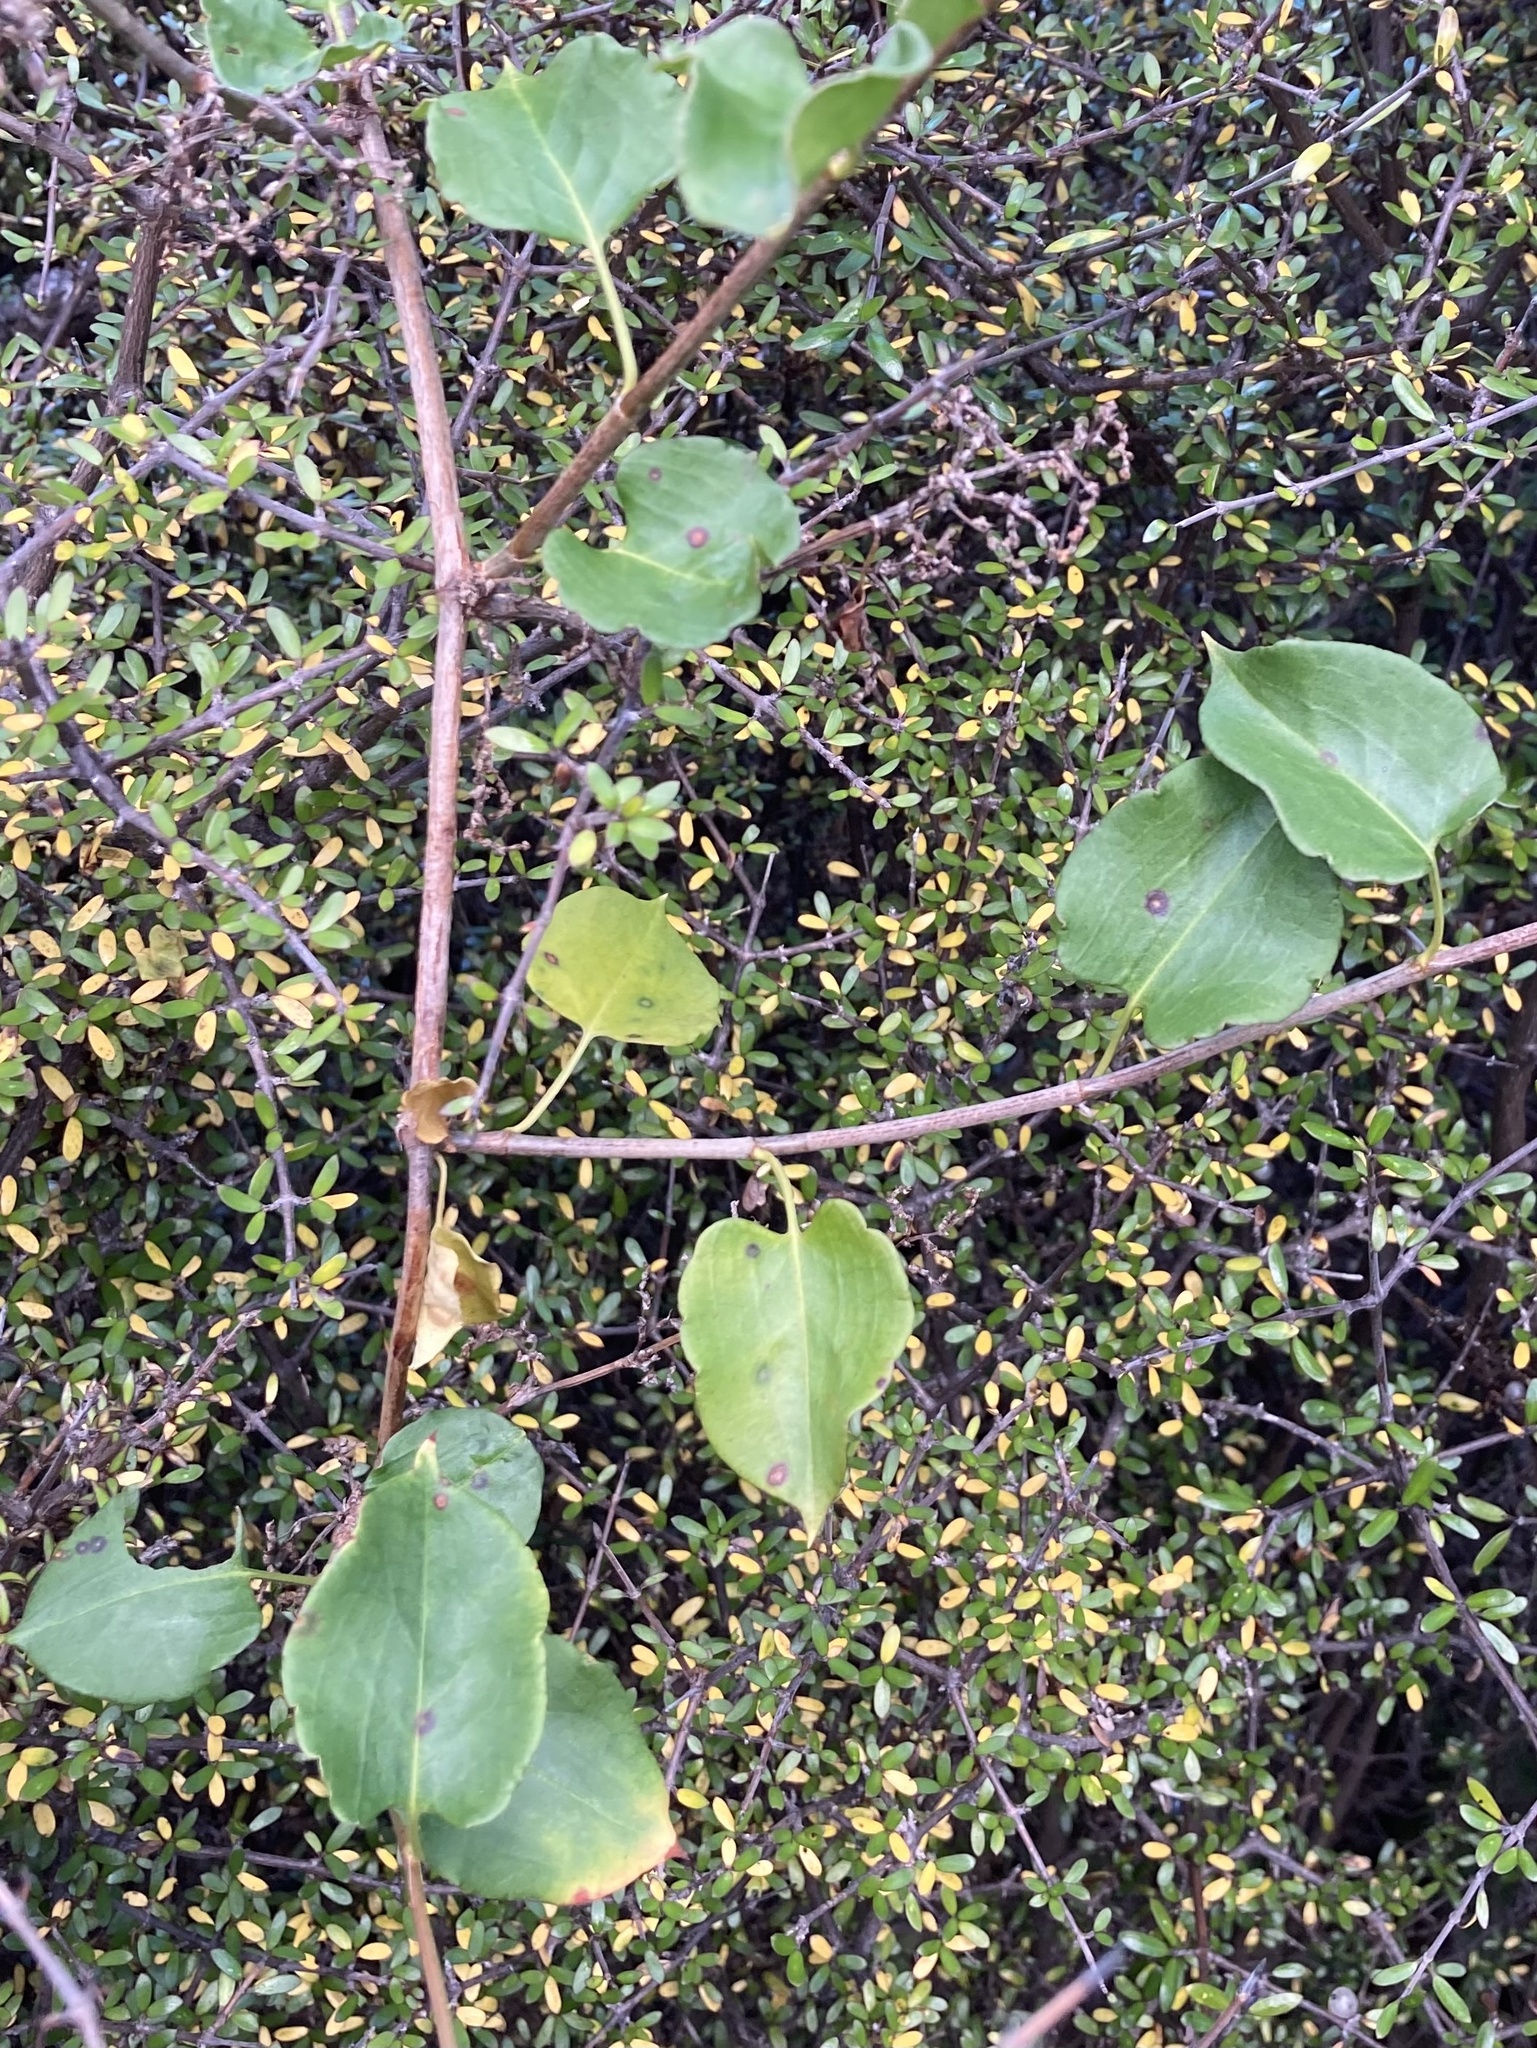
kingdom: Plantae
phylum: Tracheophyta
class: Magnoliopsida
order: Caryophyllales
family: Polygonaceae
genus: Muehlenbeckia
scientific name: Muehlenbeckia australis
